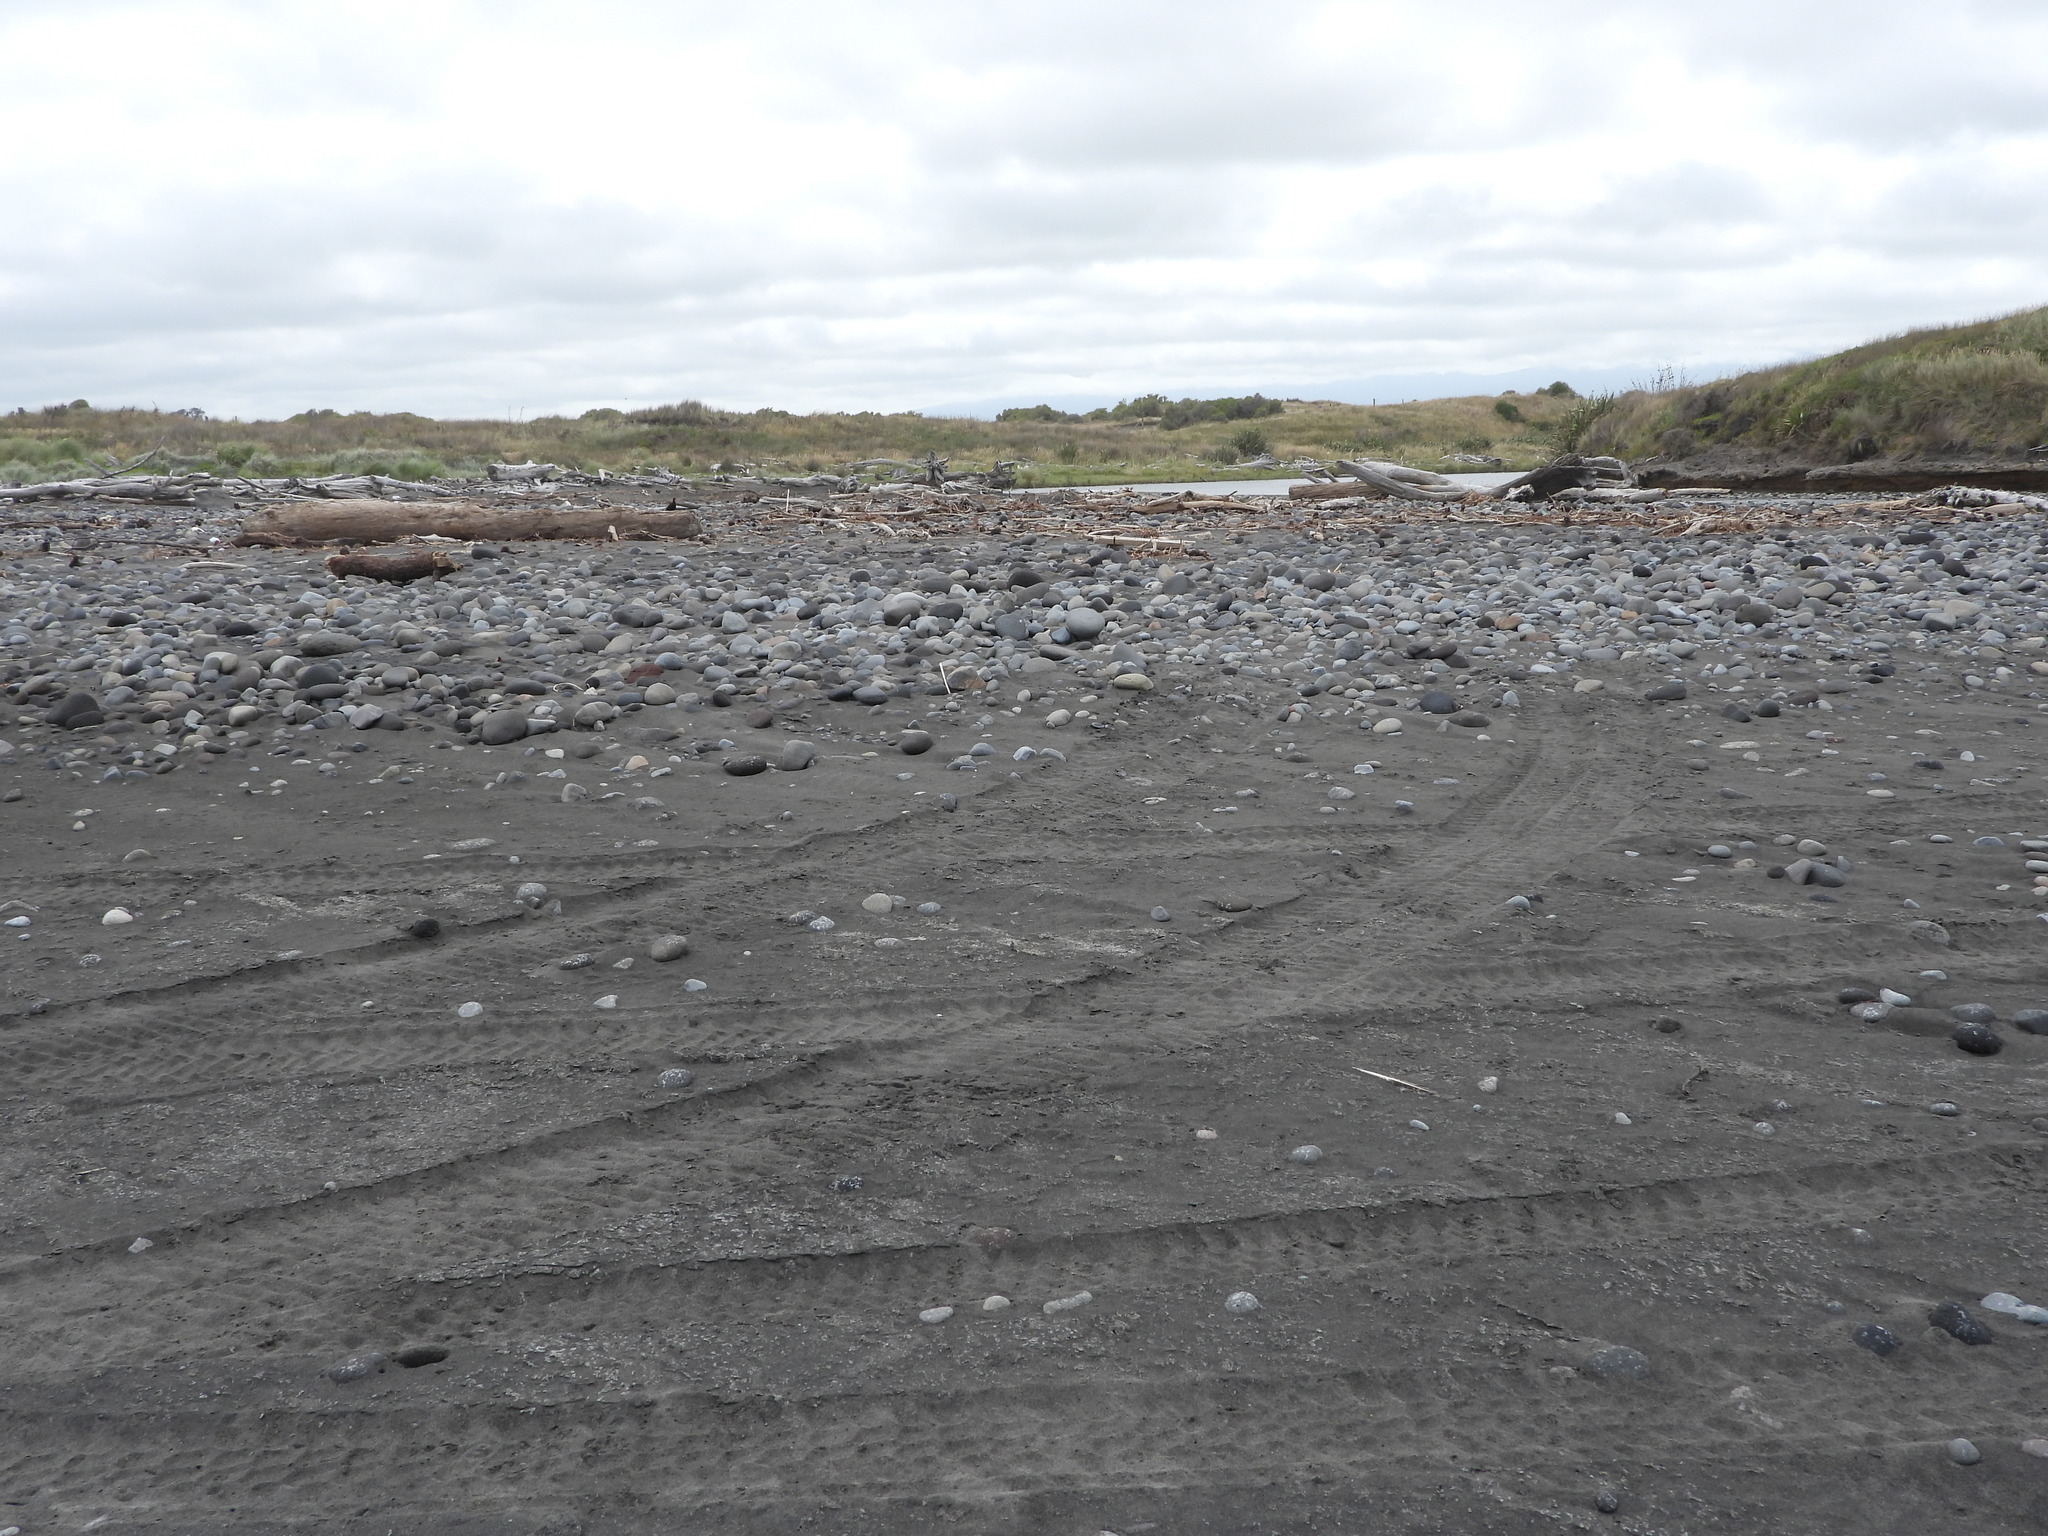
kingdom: Animalia
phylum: Chordata
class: Aves
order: Charadriiformes
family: Charadriidae
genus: Anarhynchus
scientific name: Anarhynchus
